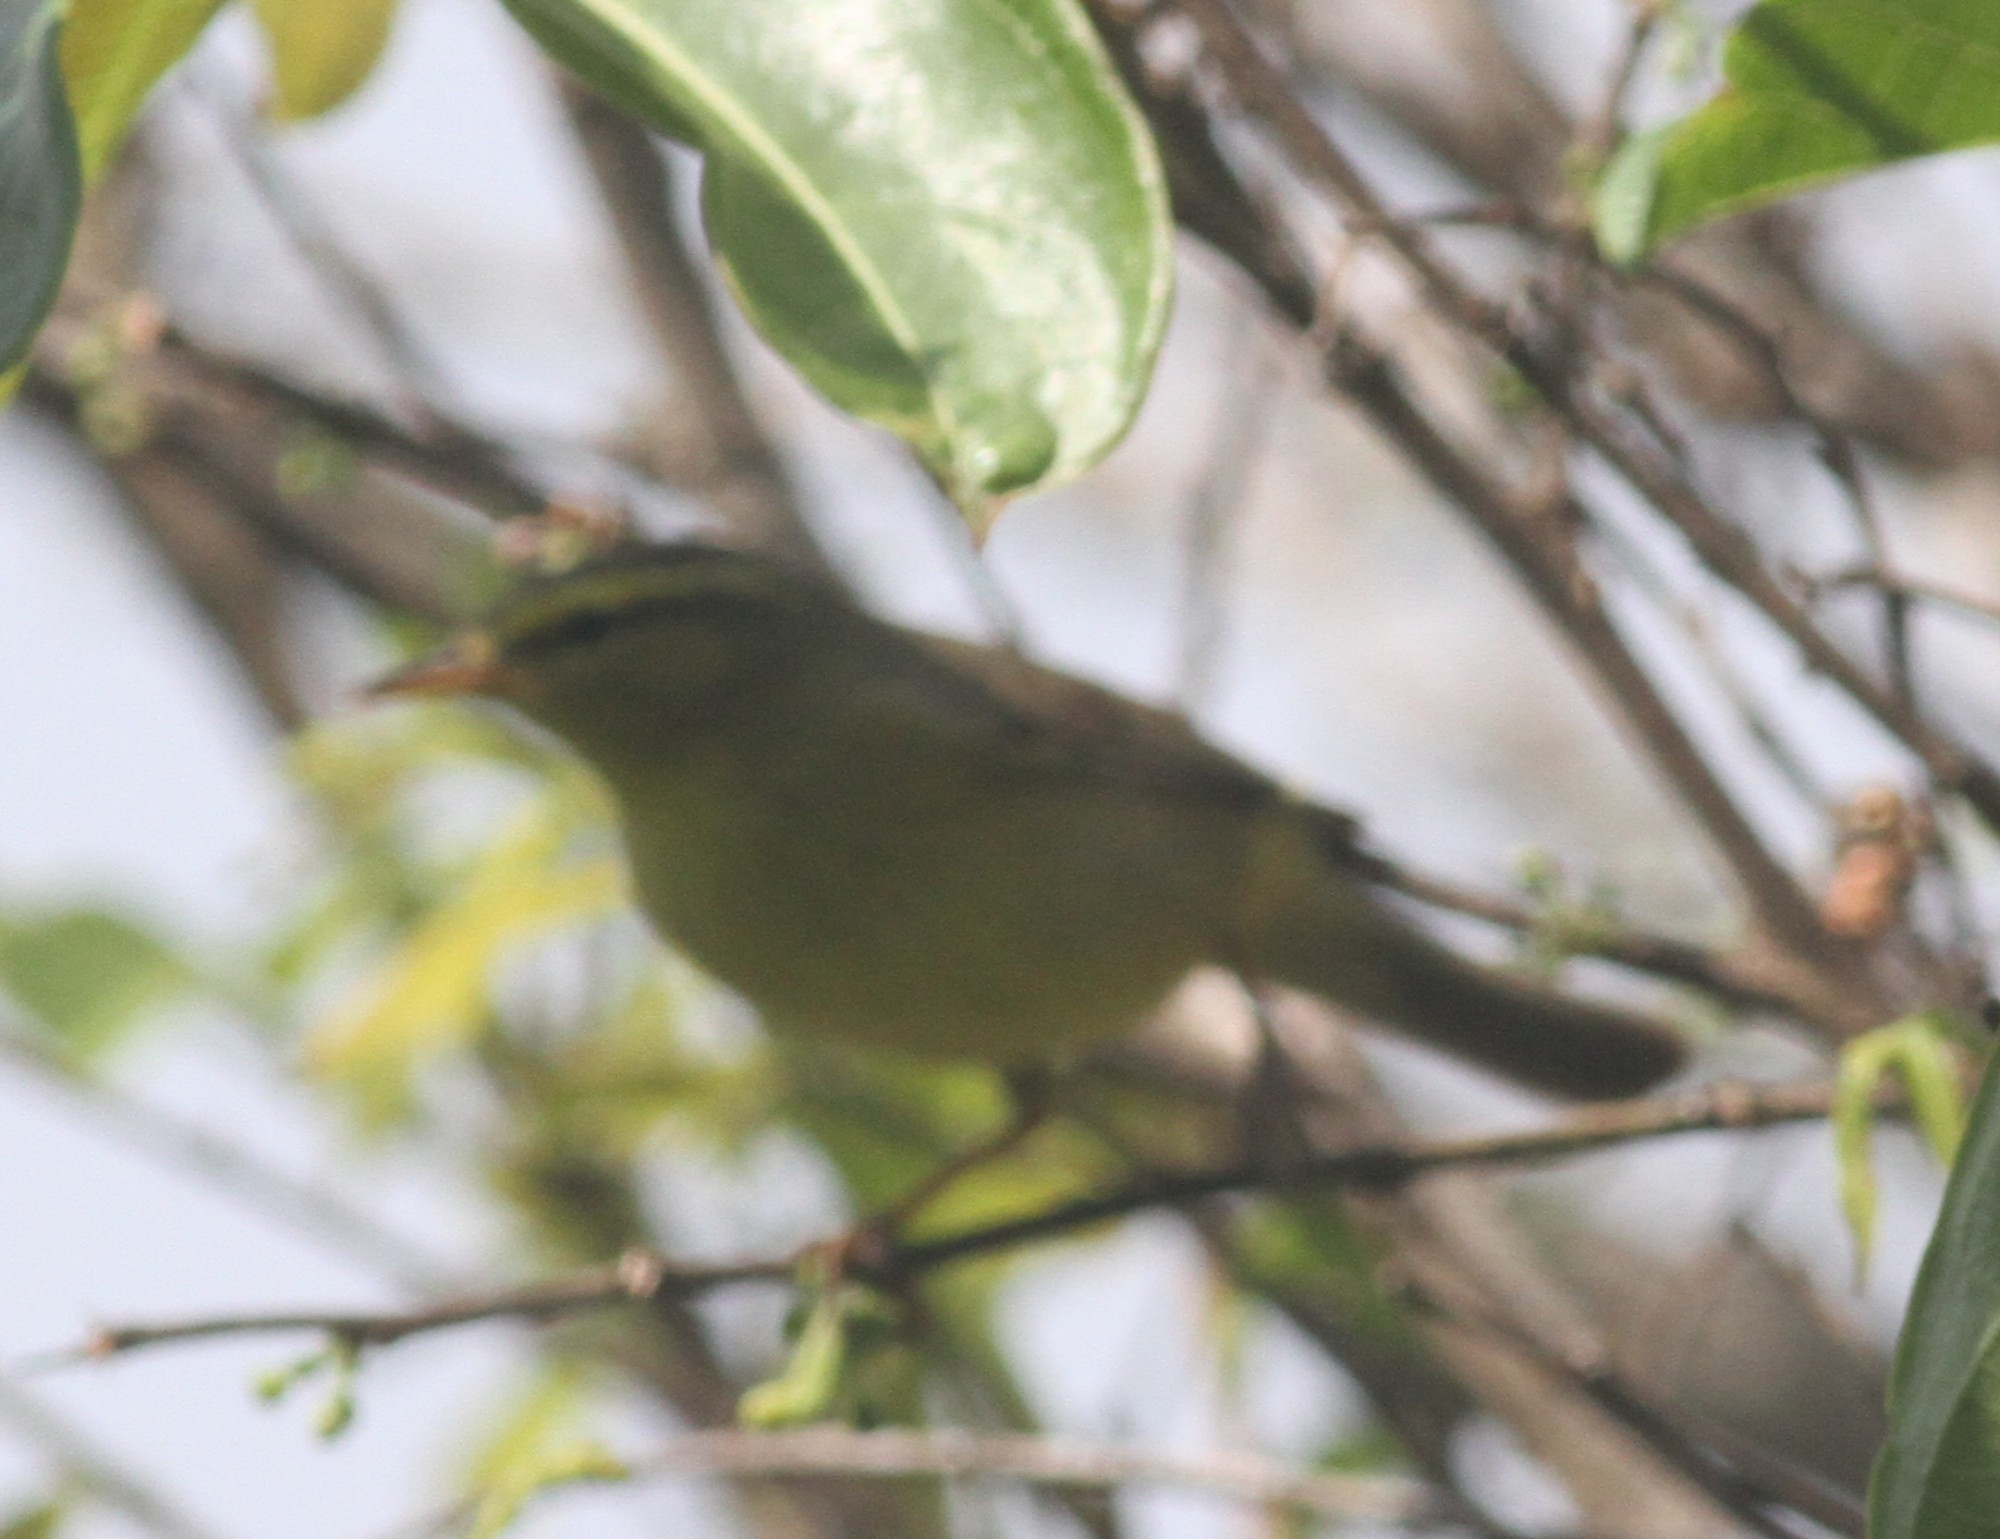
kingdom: Animalia
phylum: Chordata
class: Aves
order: Passeriformes
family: Phylloscopidae
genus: Phylloscopus
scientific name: Phylloscopus affinis
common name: Tickell's leaf warbler
